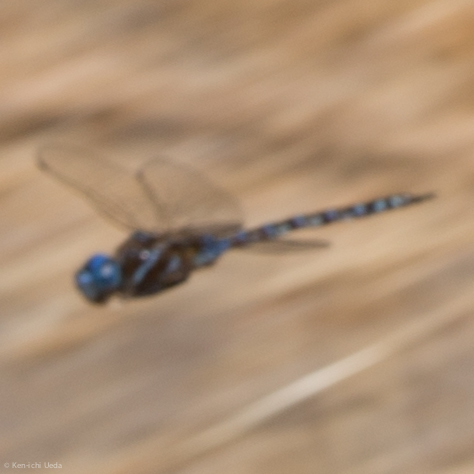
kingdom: Animalia
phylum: Arthropoda
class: Insecta
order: Odonata
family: Aeshnidae
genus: Rhionaeschna
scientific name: Rhionaeschna multicolor
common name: Blue-eyed darner
